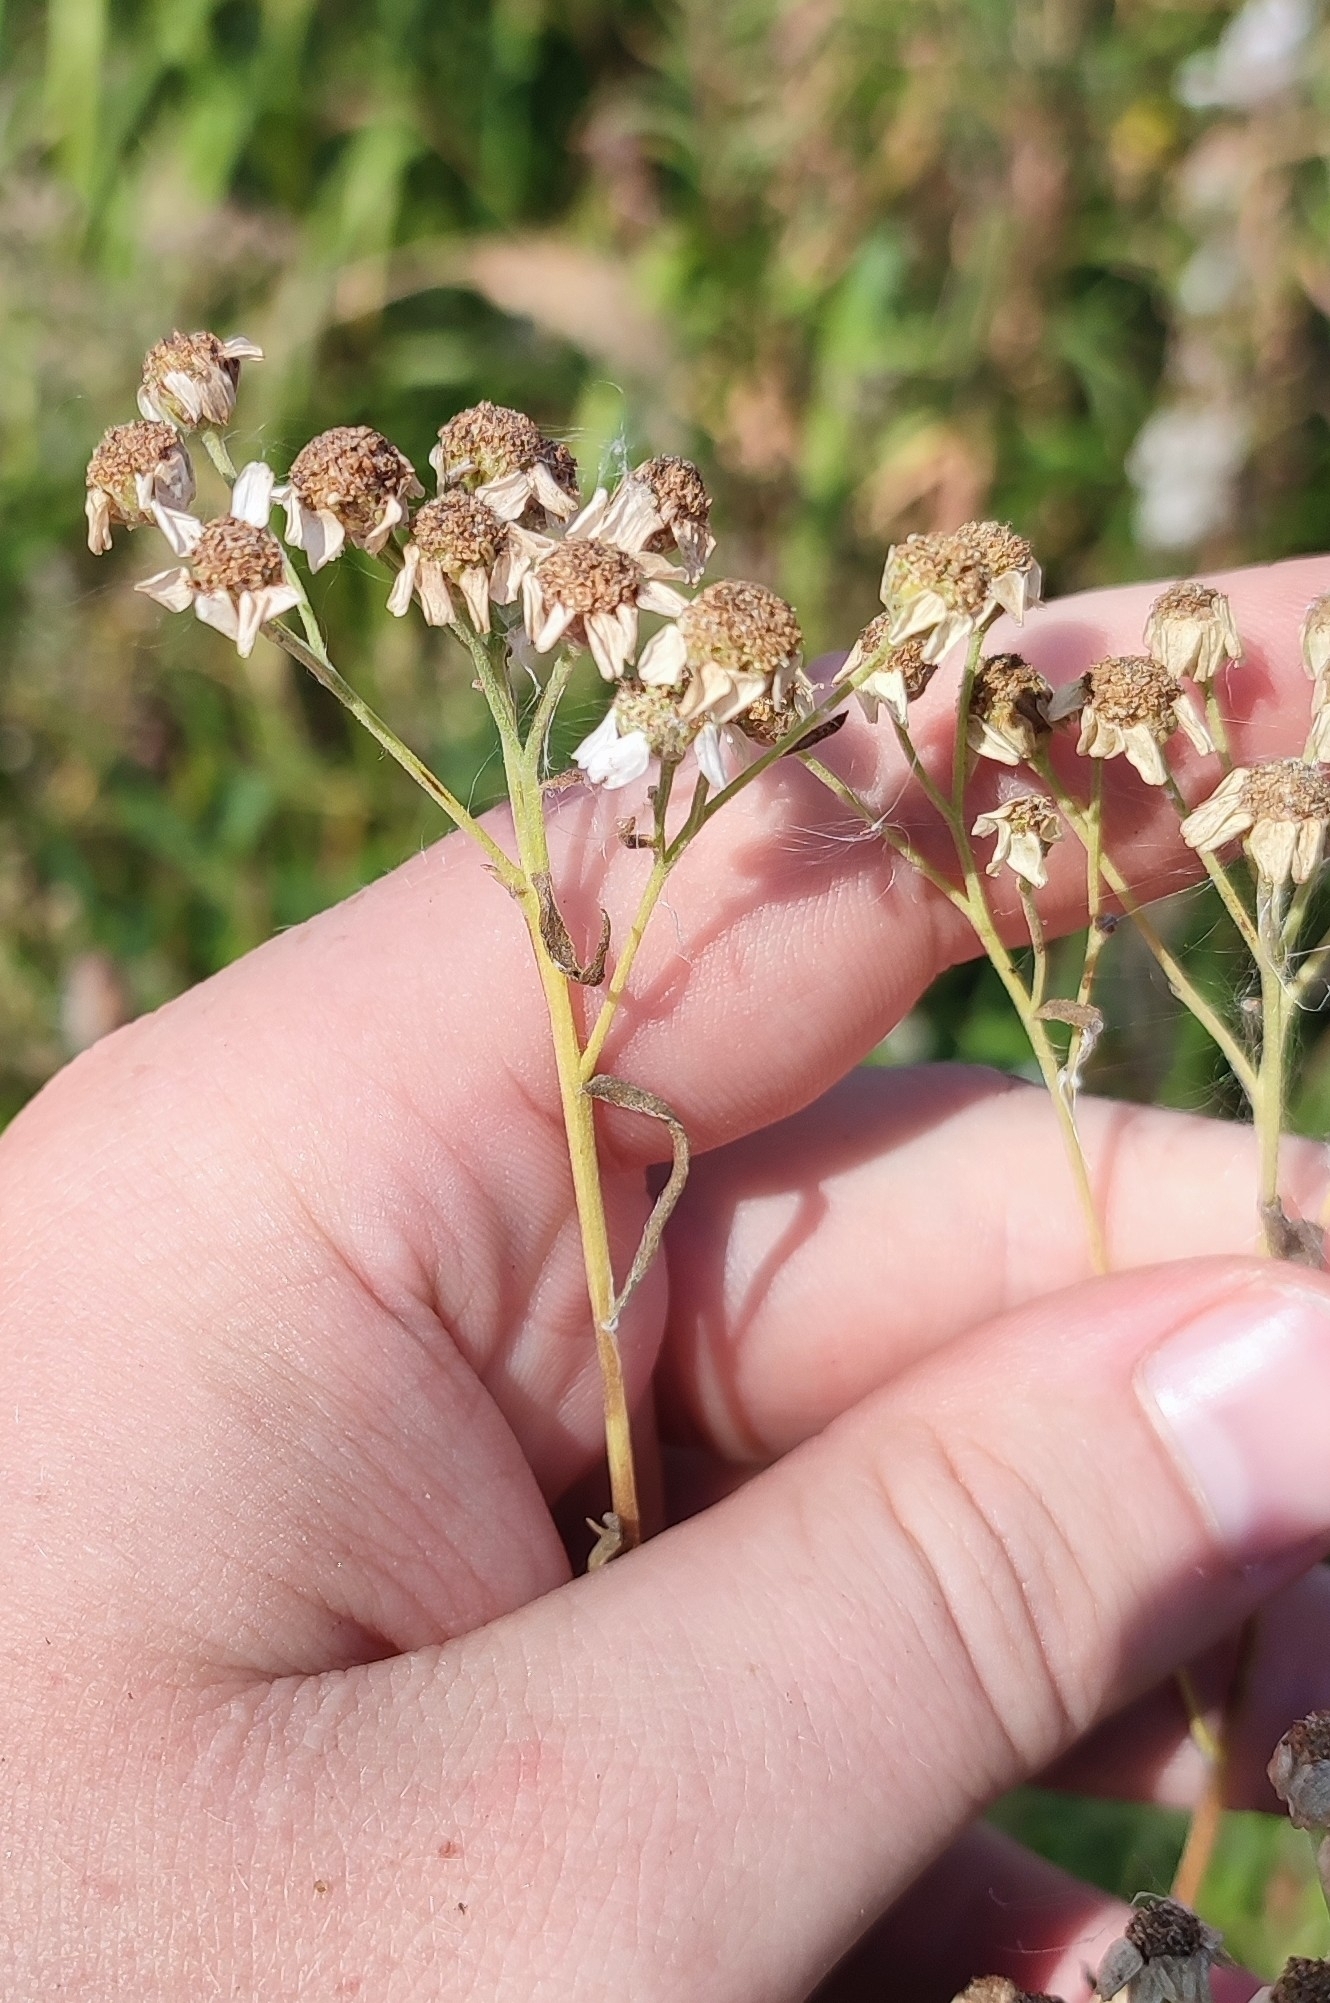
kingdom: Plantae
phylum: Tracheophyta
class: Magnoliopsida
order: Asterales
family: Asteraceae
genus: Achillea
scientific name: Achillea salicifolia
